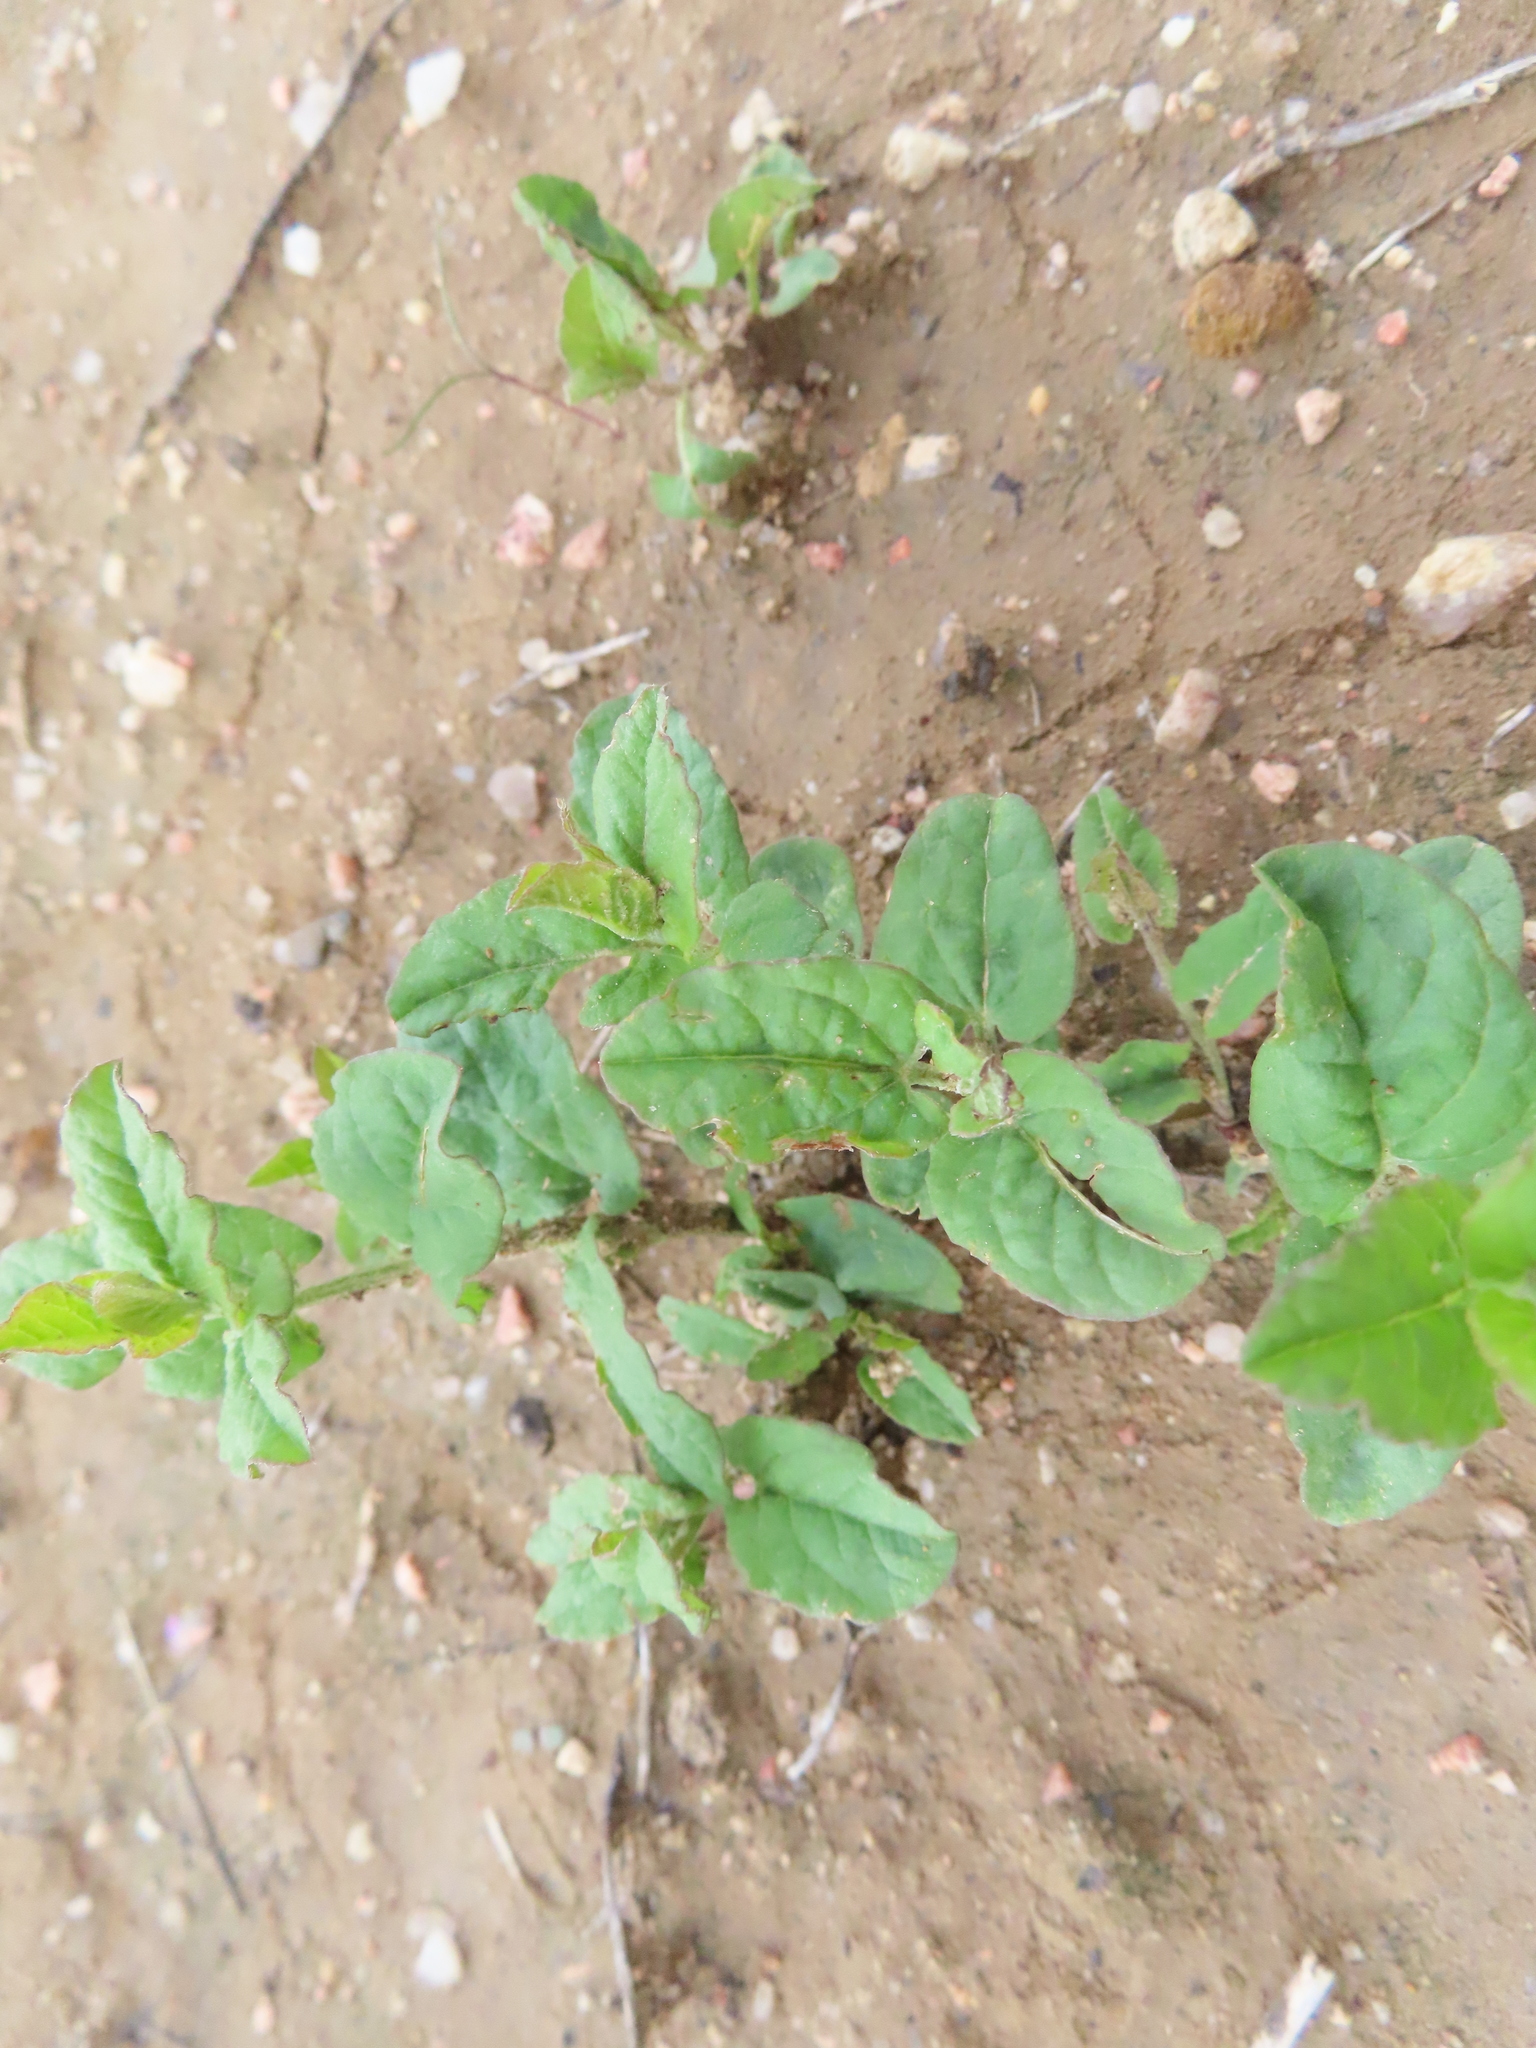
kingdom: Plantae
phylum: Tracheophyta
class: Magnoliopsida
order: Solanales
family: Convolvulaceae
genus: Convolvulus
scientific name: Convolvulus arvensis
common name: Field bindweed
